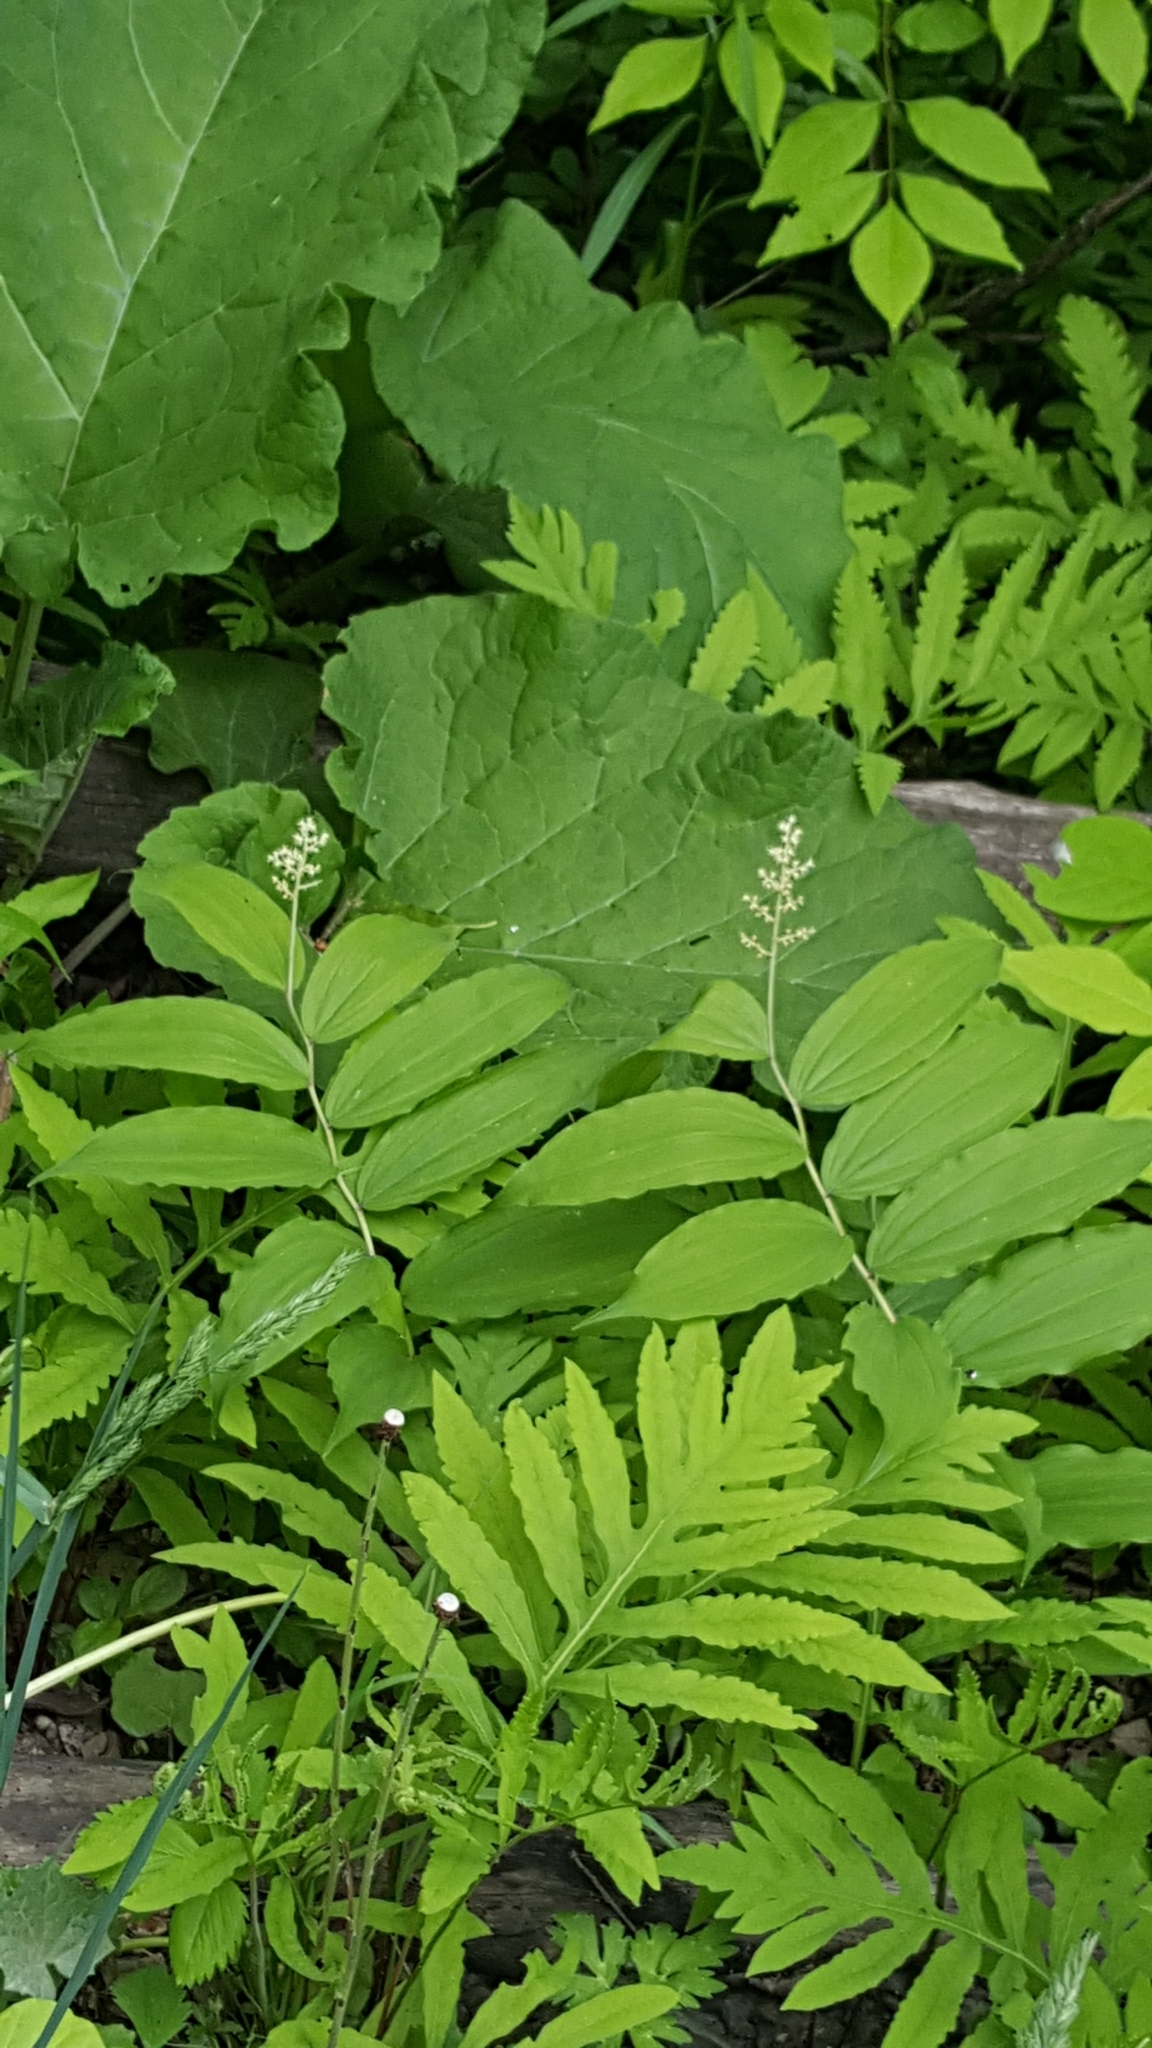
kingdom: Plantae
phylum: Tracheophyta
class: Liliopsida
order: Asparagales
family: Asparagaceae
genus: Maianthemum
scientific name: Maianthemum racemosum
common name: False spikenard
